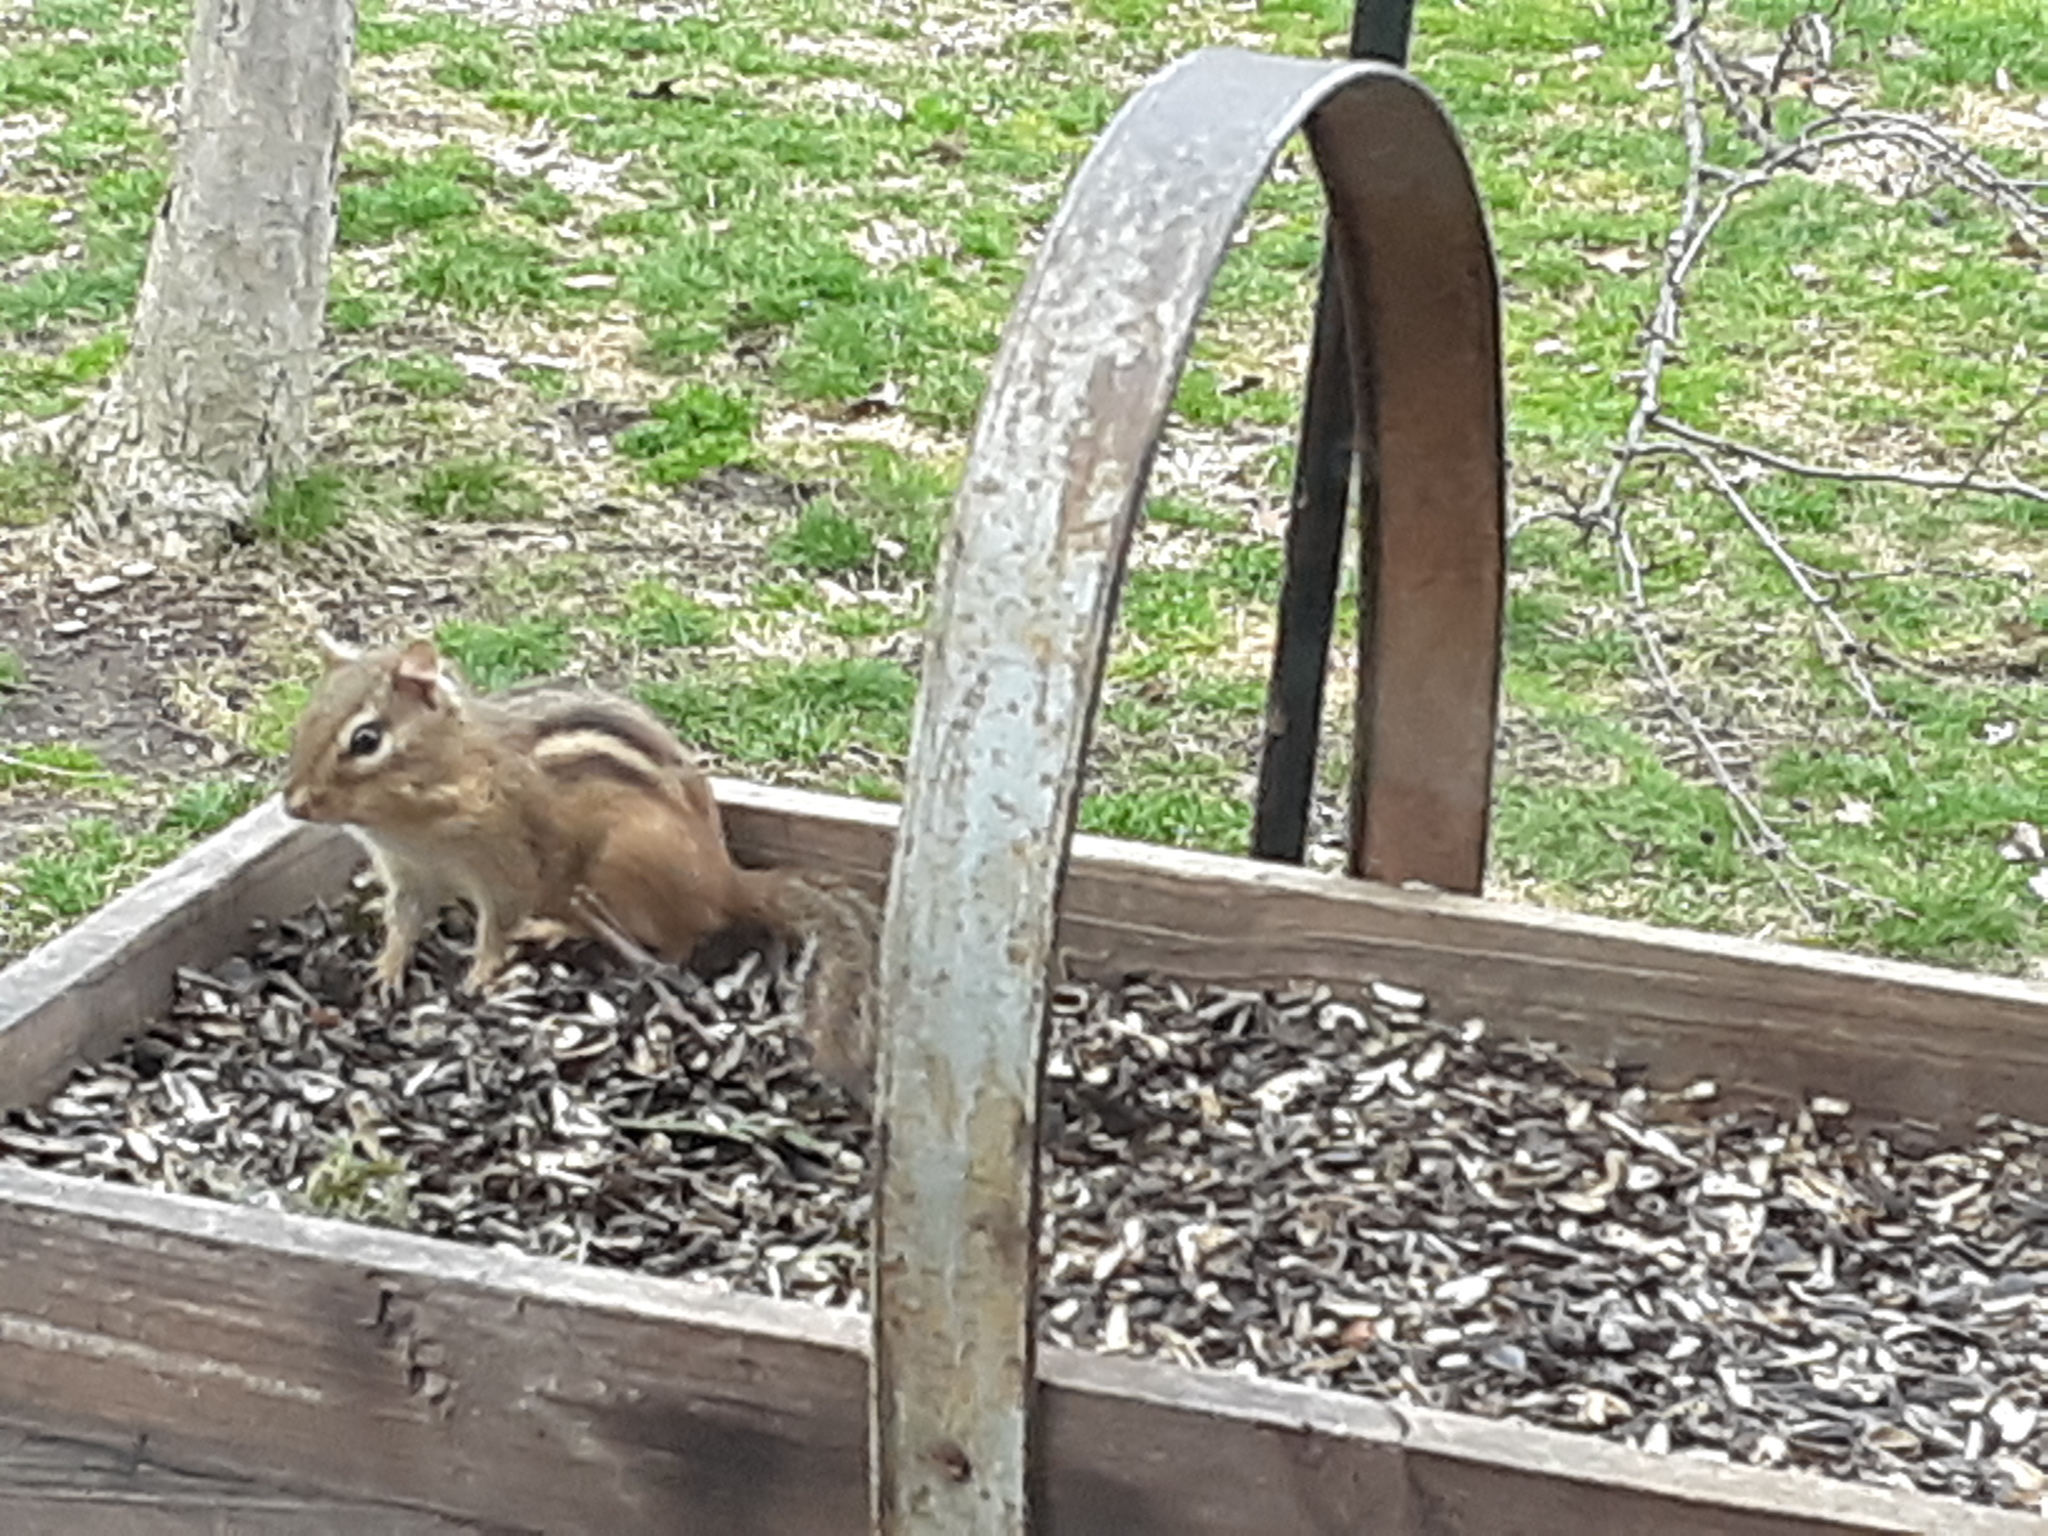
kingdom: Animalia
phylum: Chordata
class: Mammalia
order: Rodentia
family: Sciuridae
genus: Tamias
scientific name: Tamias striatus
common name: Eastern chipmunk
